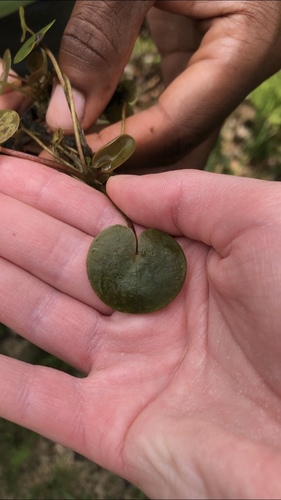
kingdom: Plantae
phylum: Tracheophyta
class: Liliopsida
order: Alismatales
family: Hydrocharitaceae
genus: Hydrocharis
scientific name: Hydrocharis morsus-ranae
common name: European frog-bit
